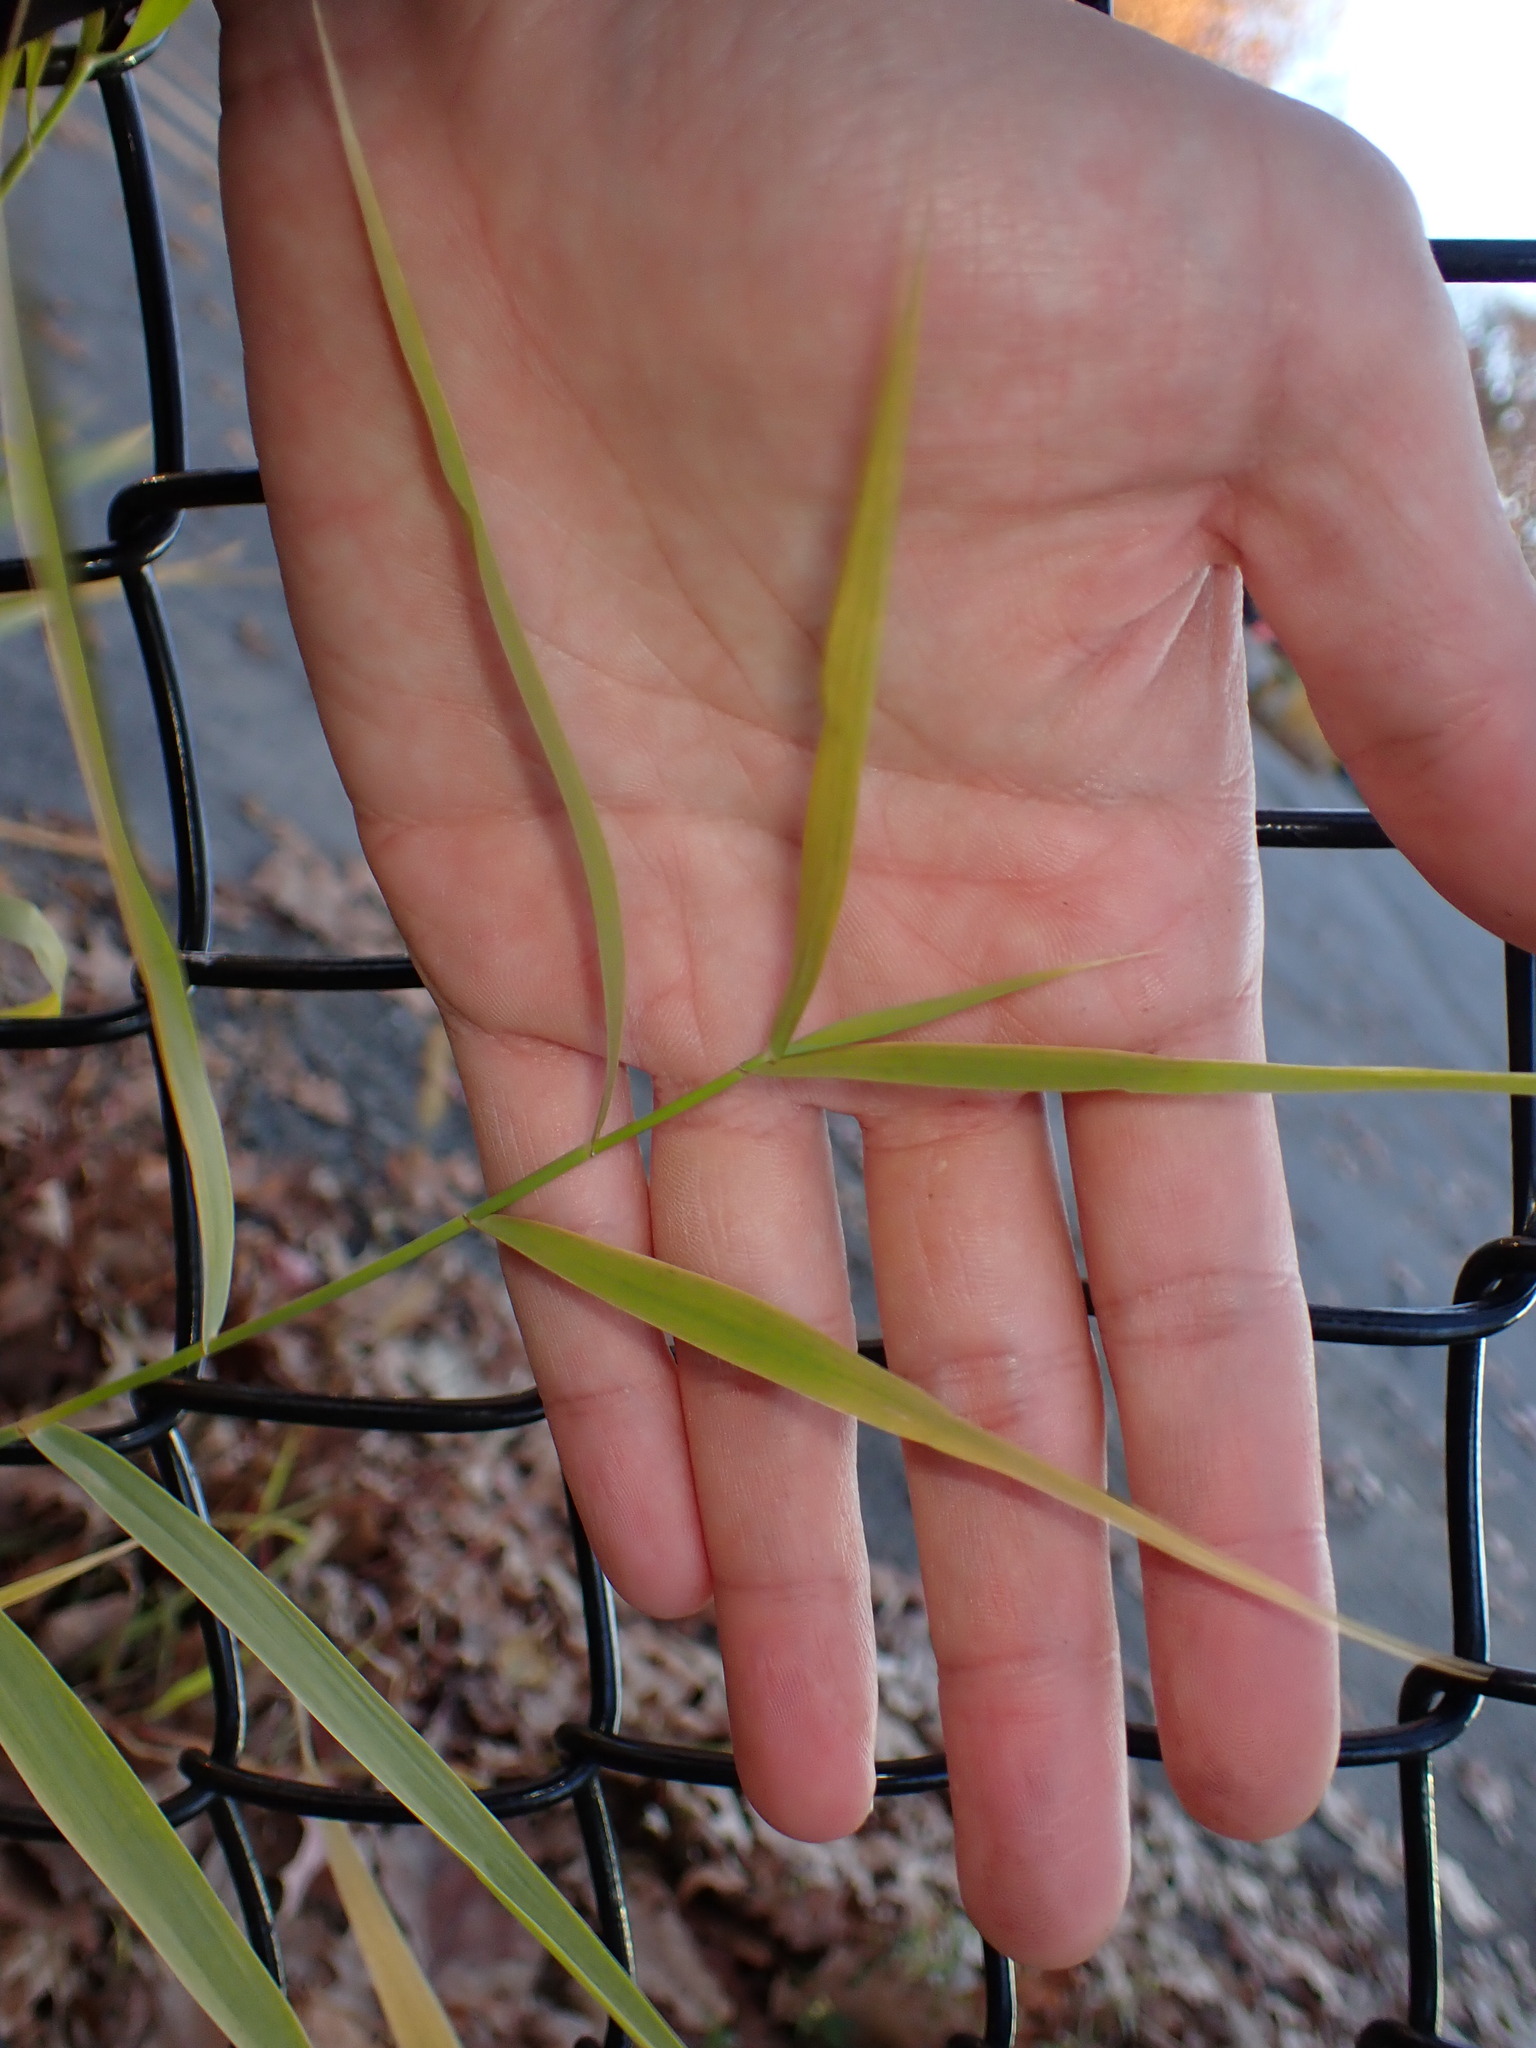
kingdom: Plantae
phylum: Tracheophyta
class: Liliopsida
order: Poales
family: Poaceae
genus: Leersia
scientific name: Leersia oryzoides
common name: Cut-grass
